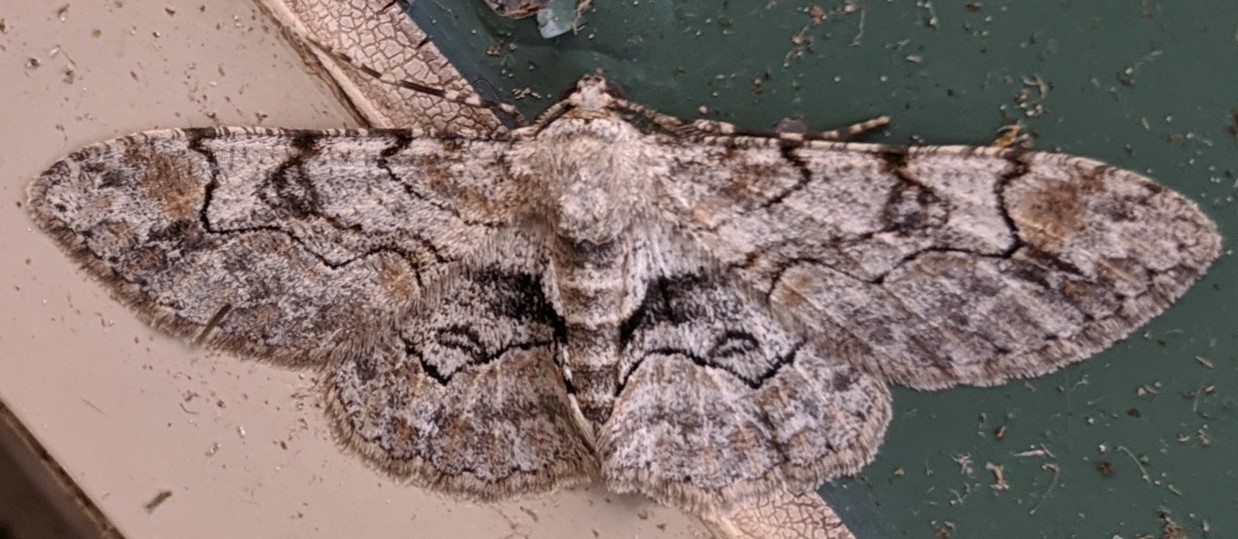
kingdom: Animalia
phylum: Arthropoda
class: Insecta
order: Lepidoptera
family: Geometridae
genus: Iridopsis
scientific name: Iridopsis larvaria
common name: Bent-line gray
